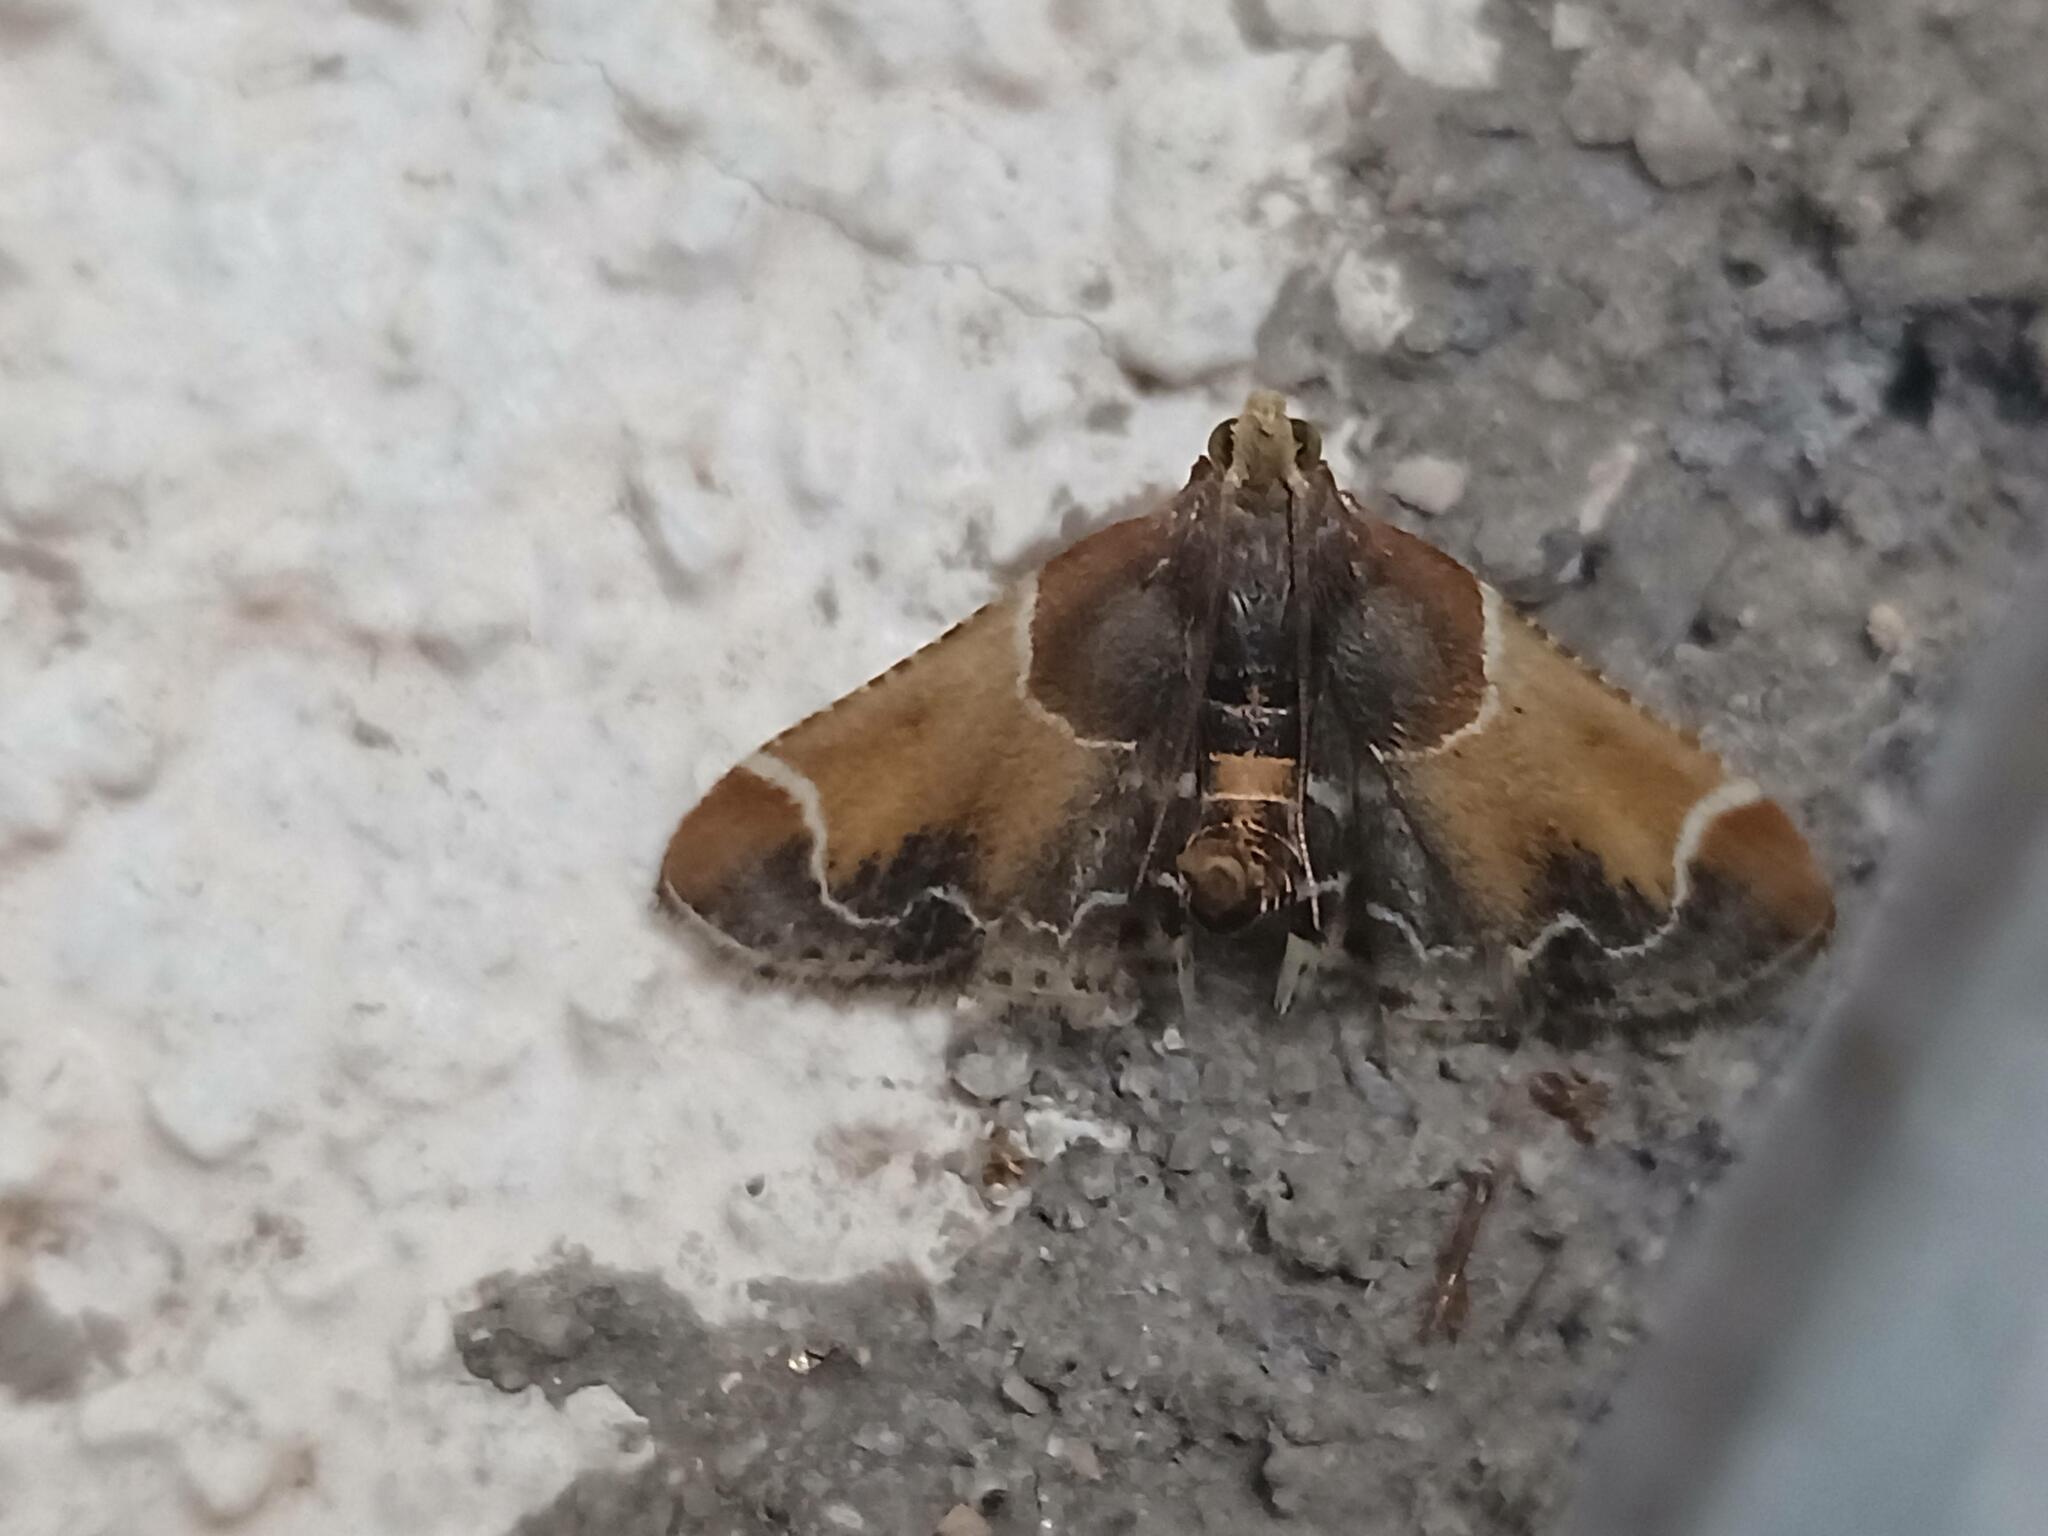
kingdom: Animalia
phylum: Arthropoda
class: Insecta
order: Lepidoptera
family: Pyralidae
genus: Pyralis
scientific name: Pyralis farinalis
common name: Meal moth
